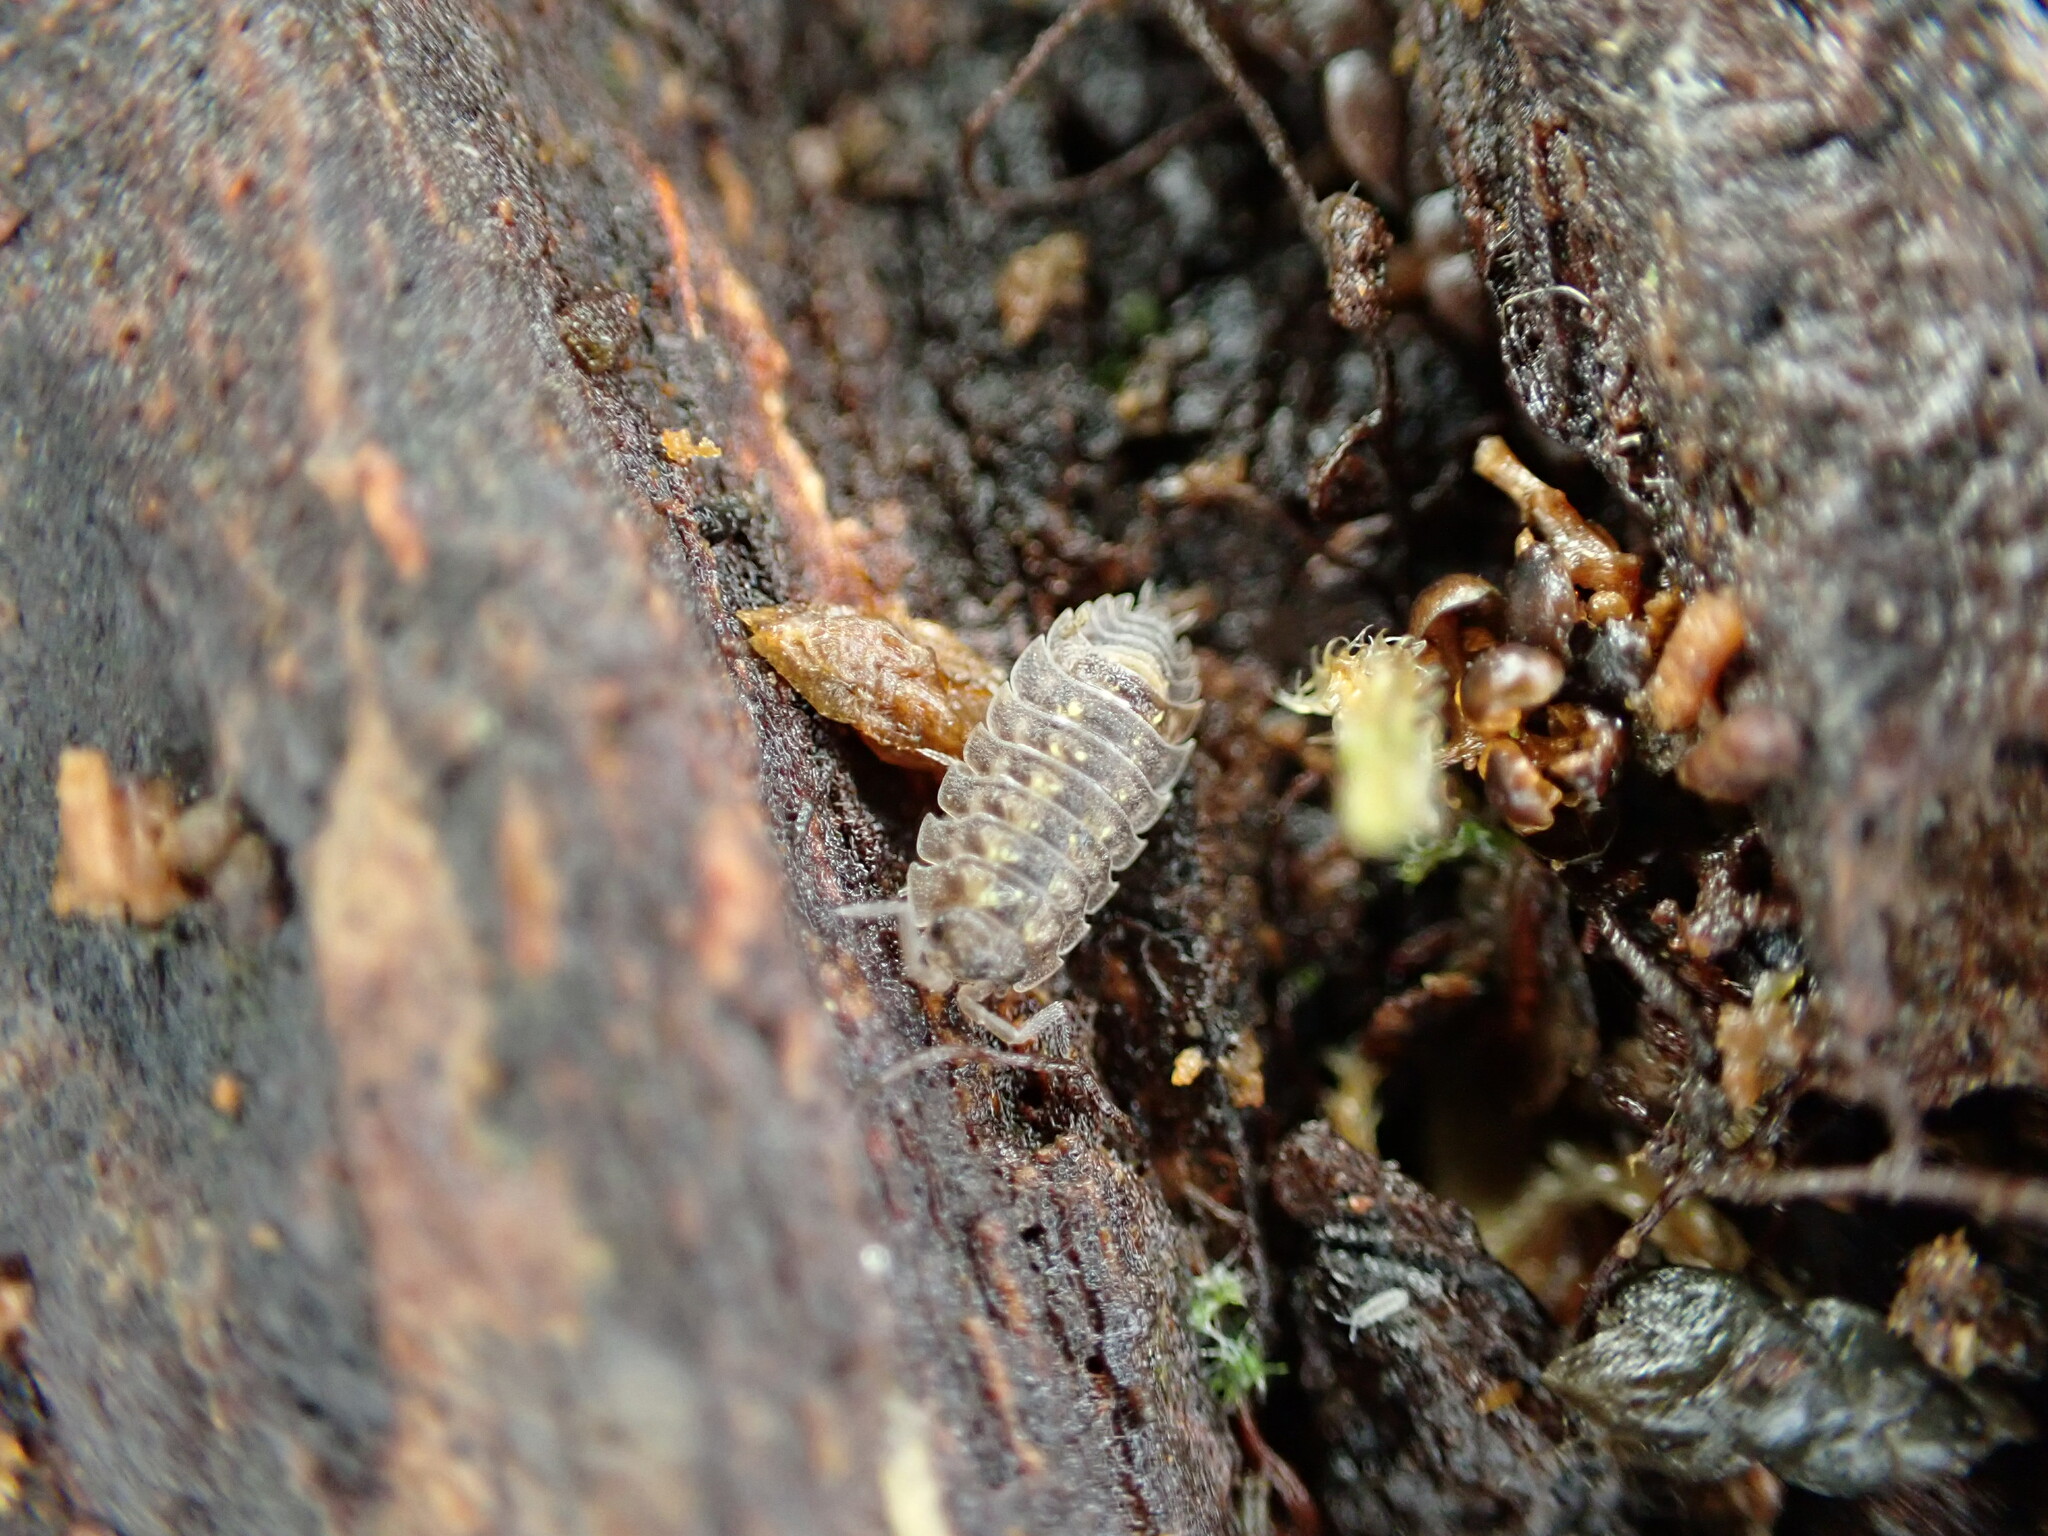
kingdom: Animalia
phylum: Arthropoda
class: Malacostraca
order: Isopoda
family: Oniscidae
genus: Oniscus
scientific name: Oniscus asellus
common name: Common shiny woodlouse
